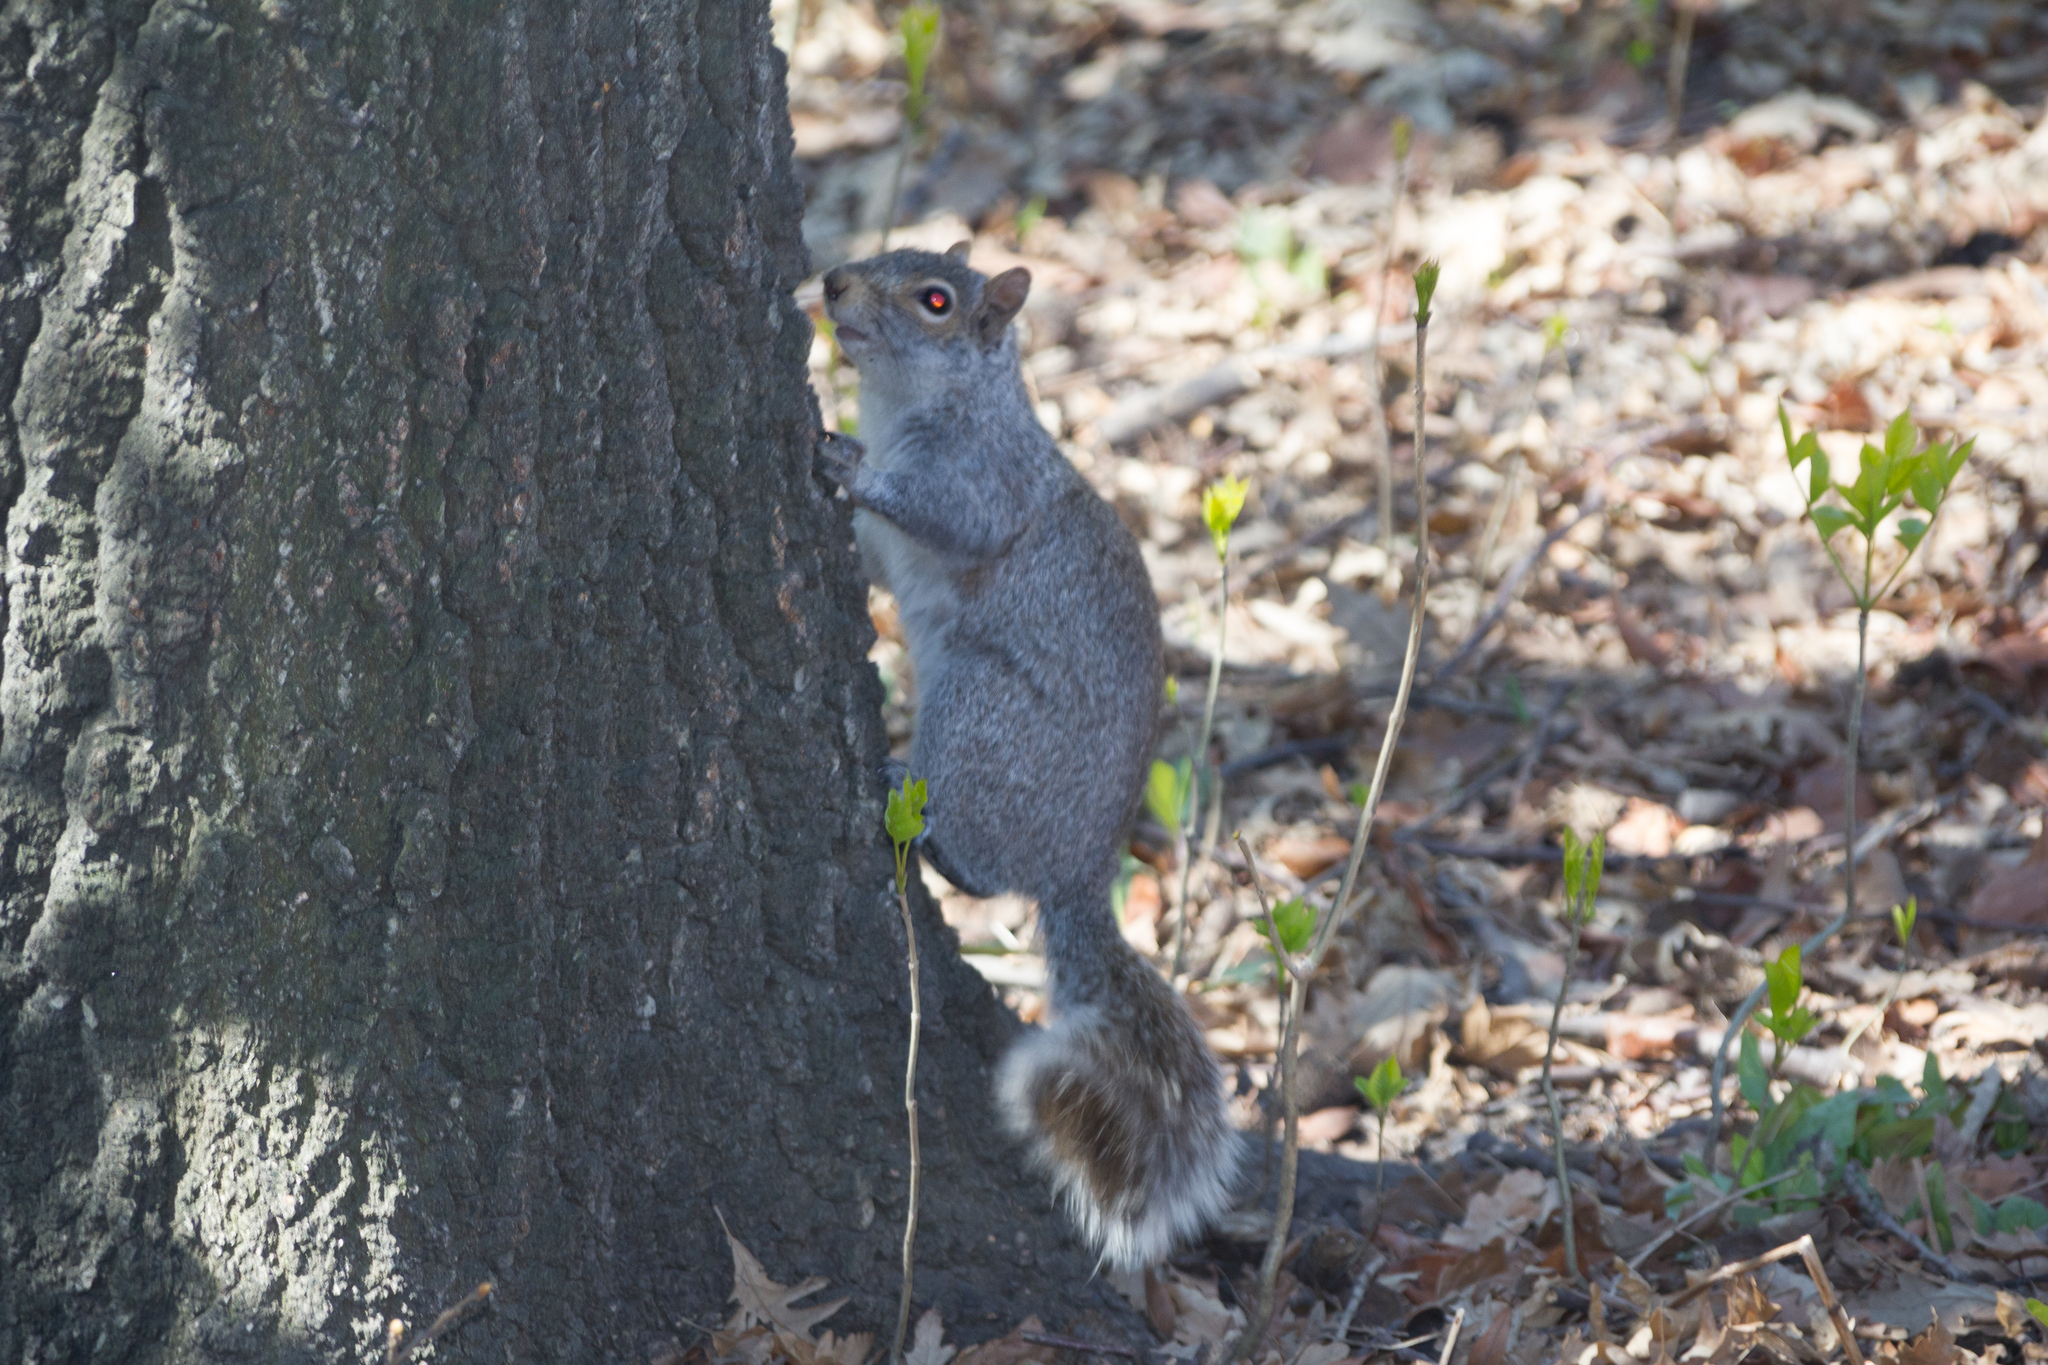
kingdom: Animalia
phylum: Chordata
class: Mammalia
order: Rodentia
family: Sciuridae
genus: Sciurus
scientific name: Sciurus carolinensis
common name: Eastern gray squirrel
